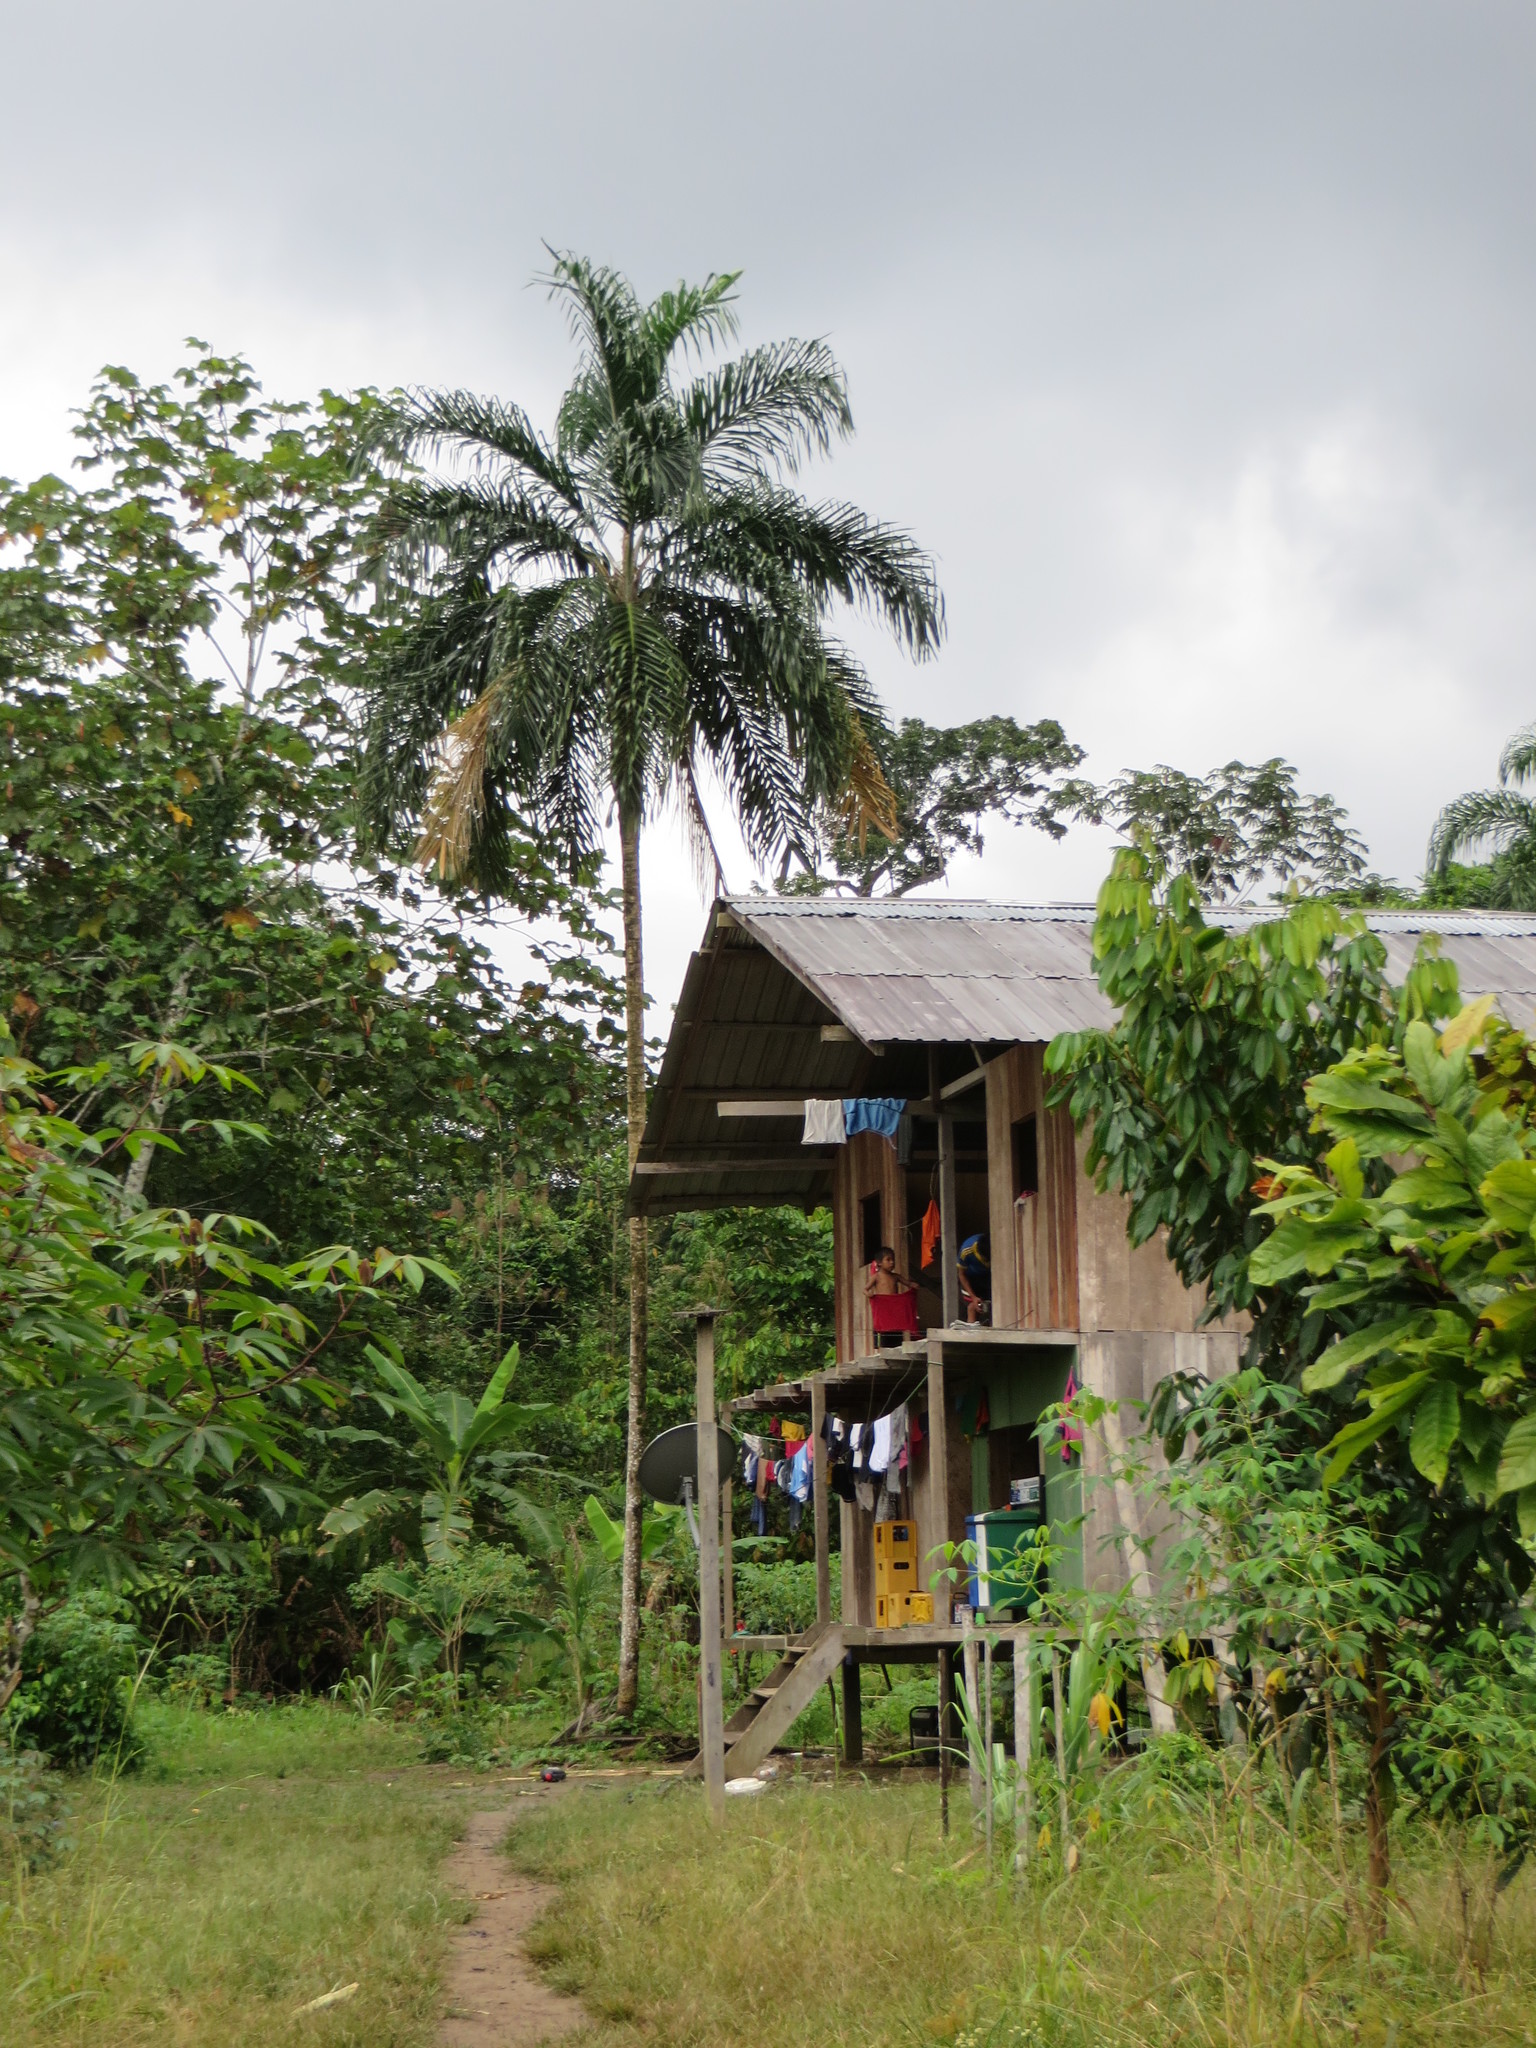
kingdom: Plantae
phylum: Tracheophyta
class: Liliopsida
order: Arecales
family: Arecaceae
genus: Bactris
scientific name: Bactris gasipaes
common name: Peach palm
